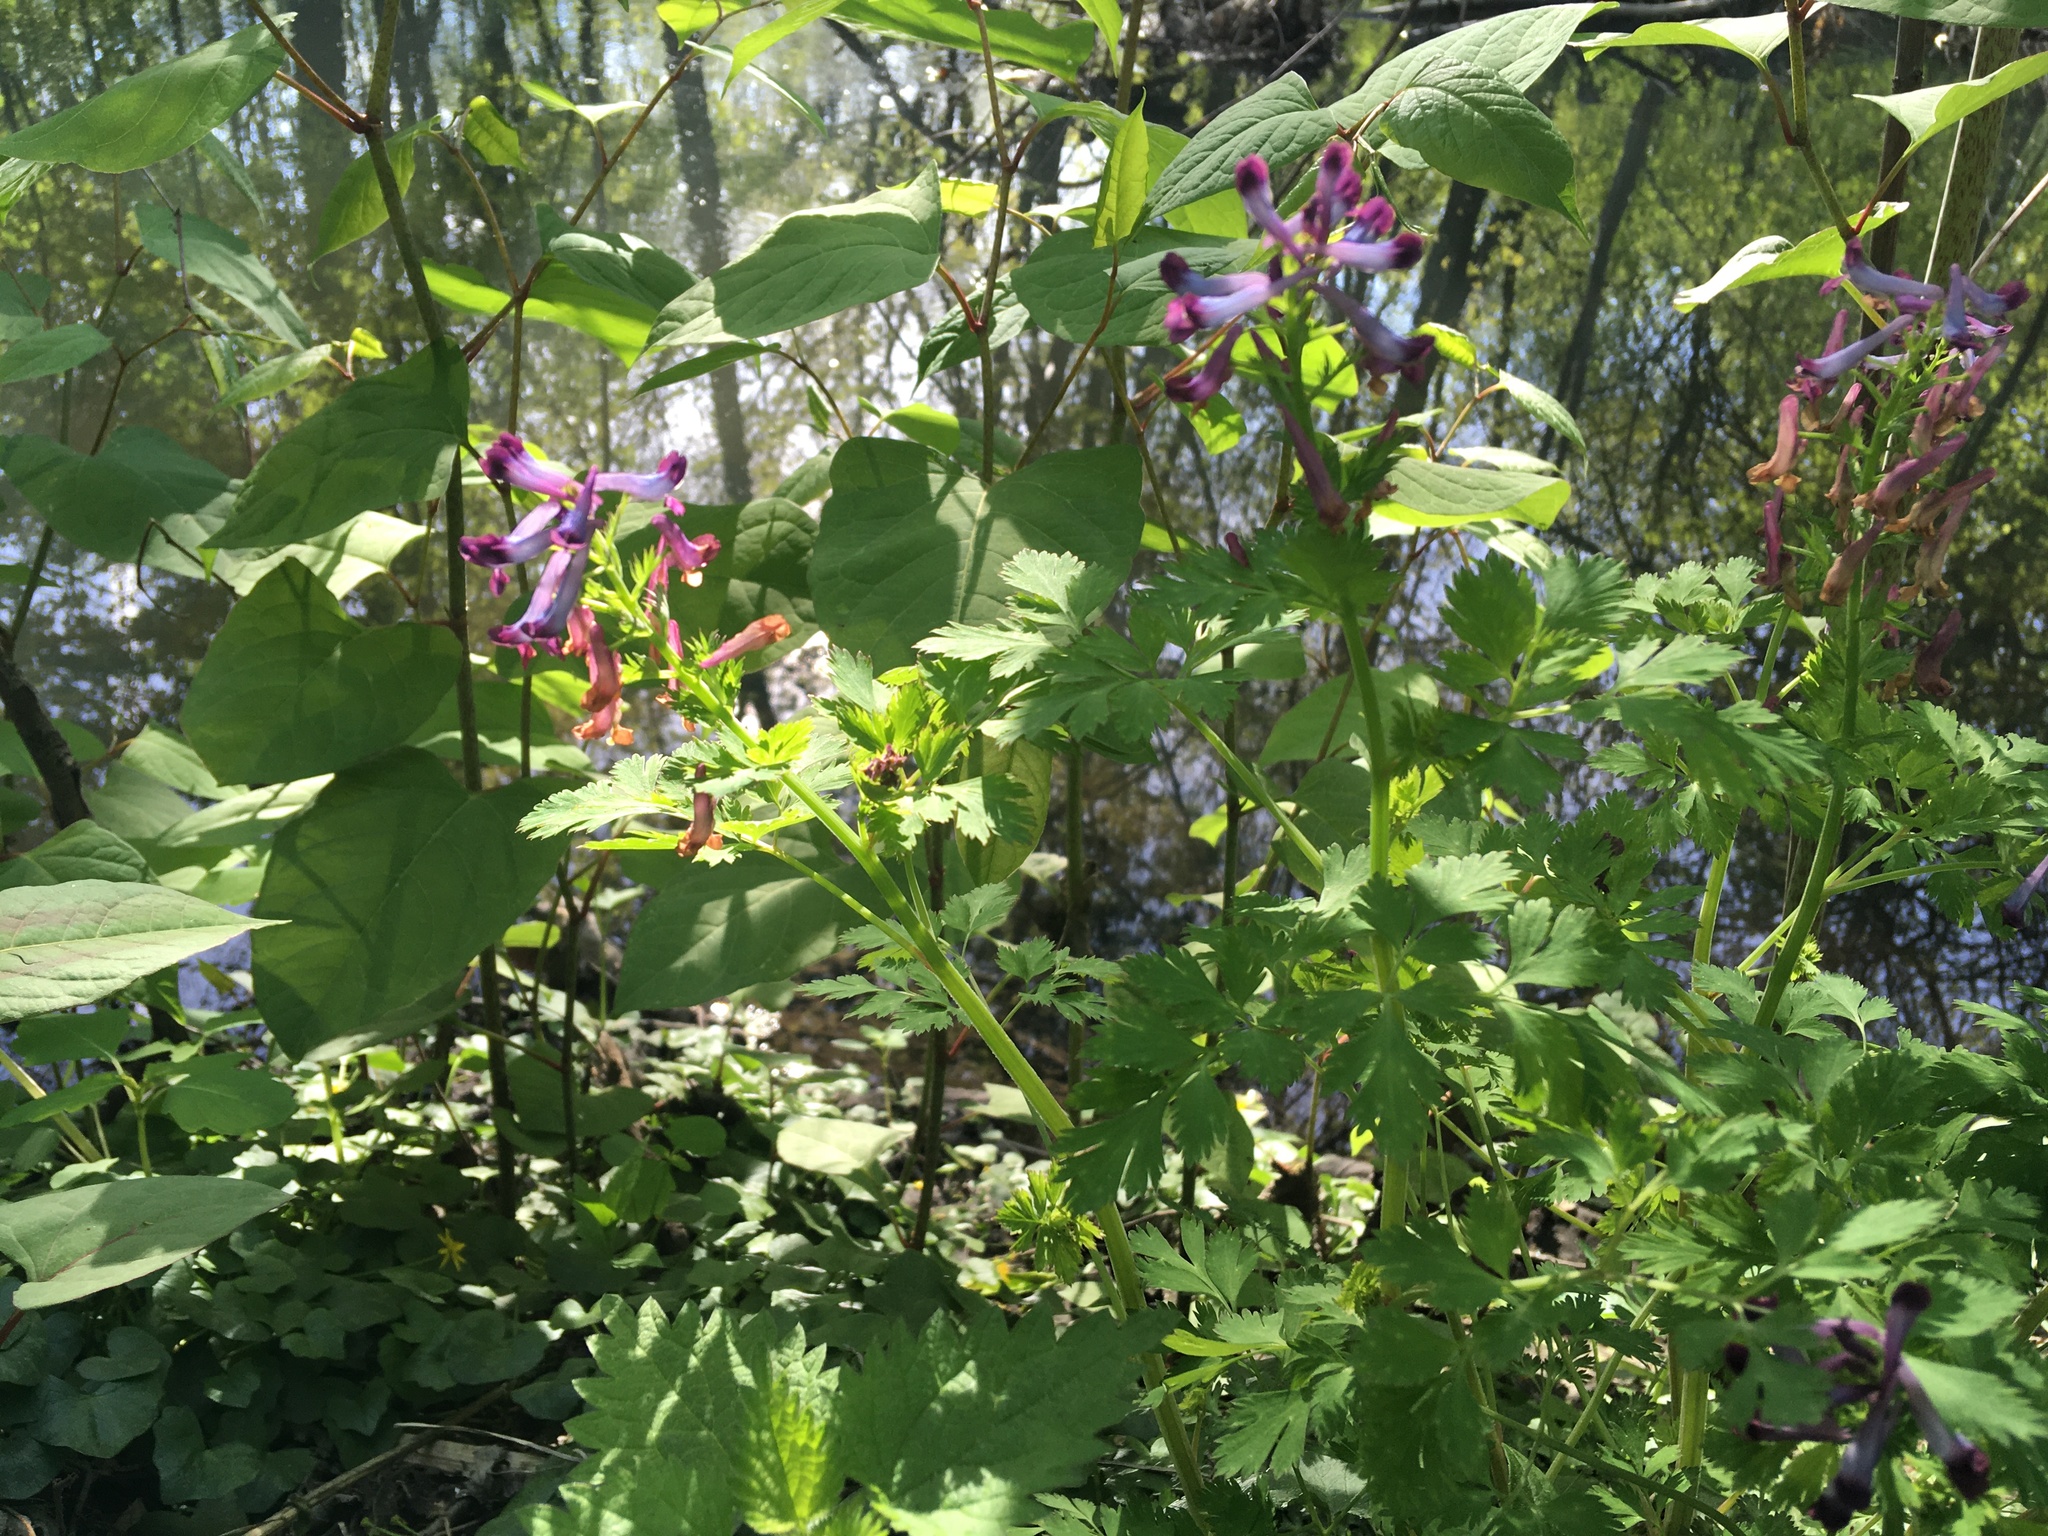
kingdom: Plantae
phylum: Tracheophyta
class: Magnoliopsida
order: Ranunculales
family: Papaveraceae
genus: Corydalis
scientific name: Corydalis incisa
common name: Incised fumewort
